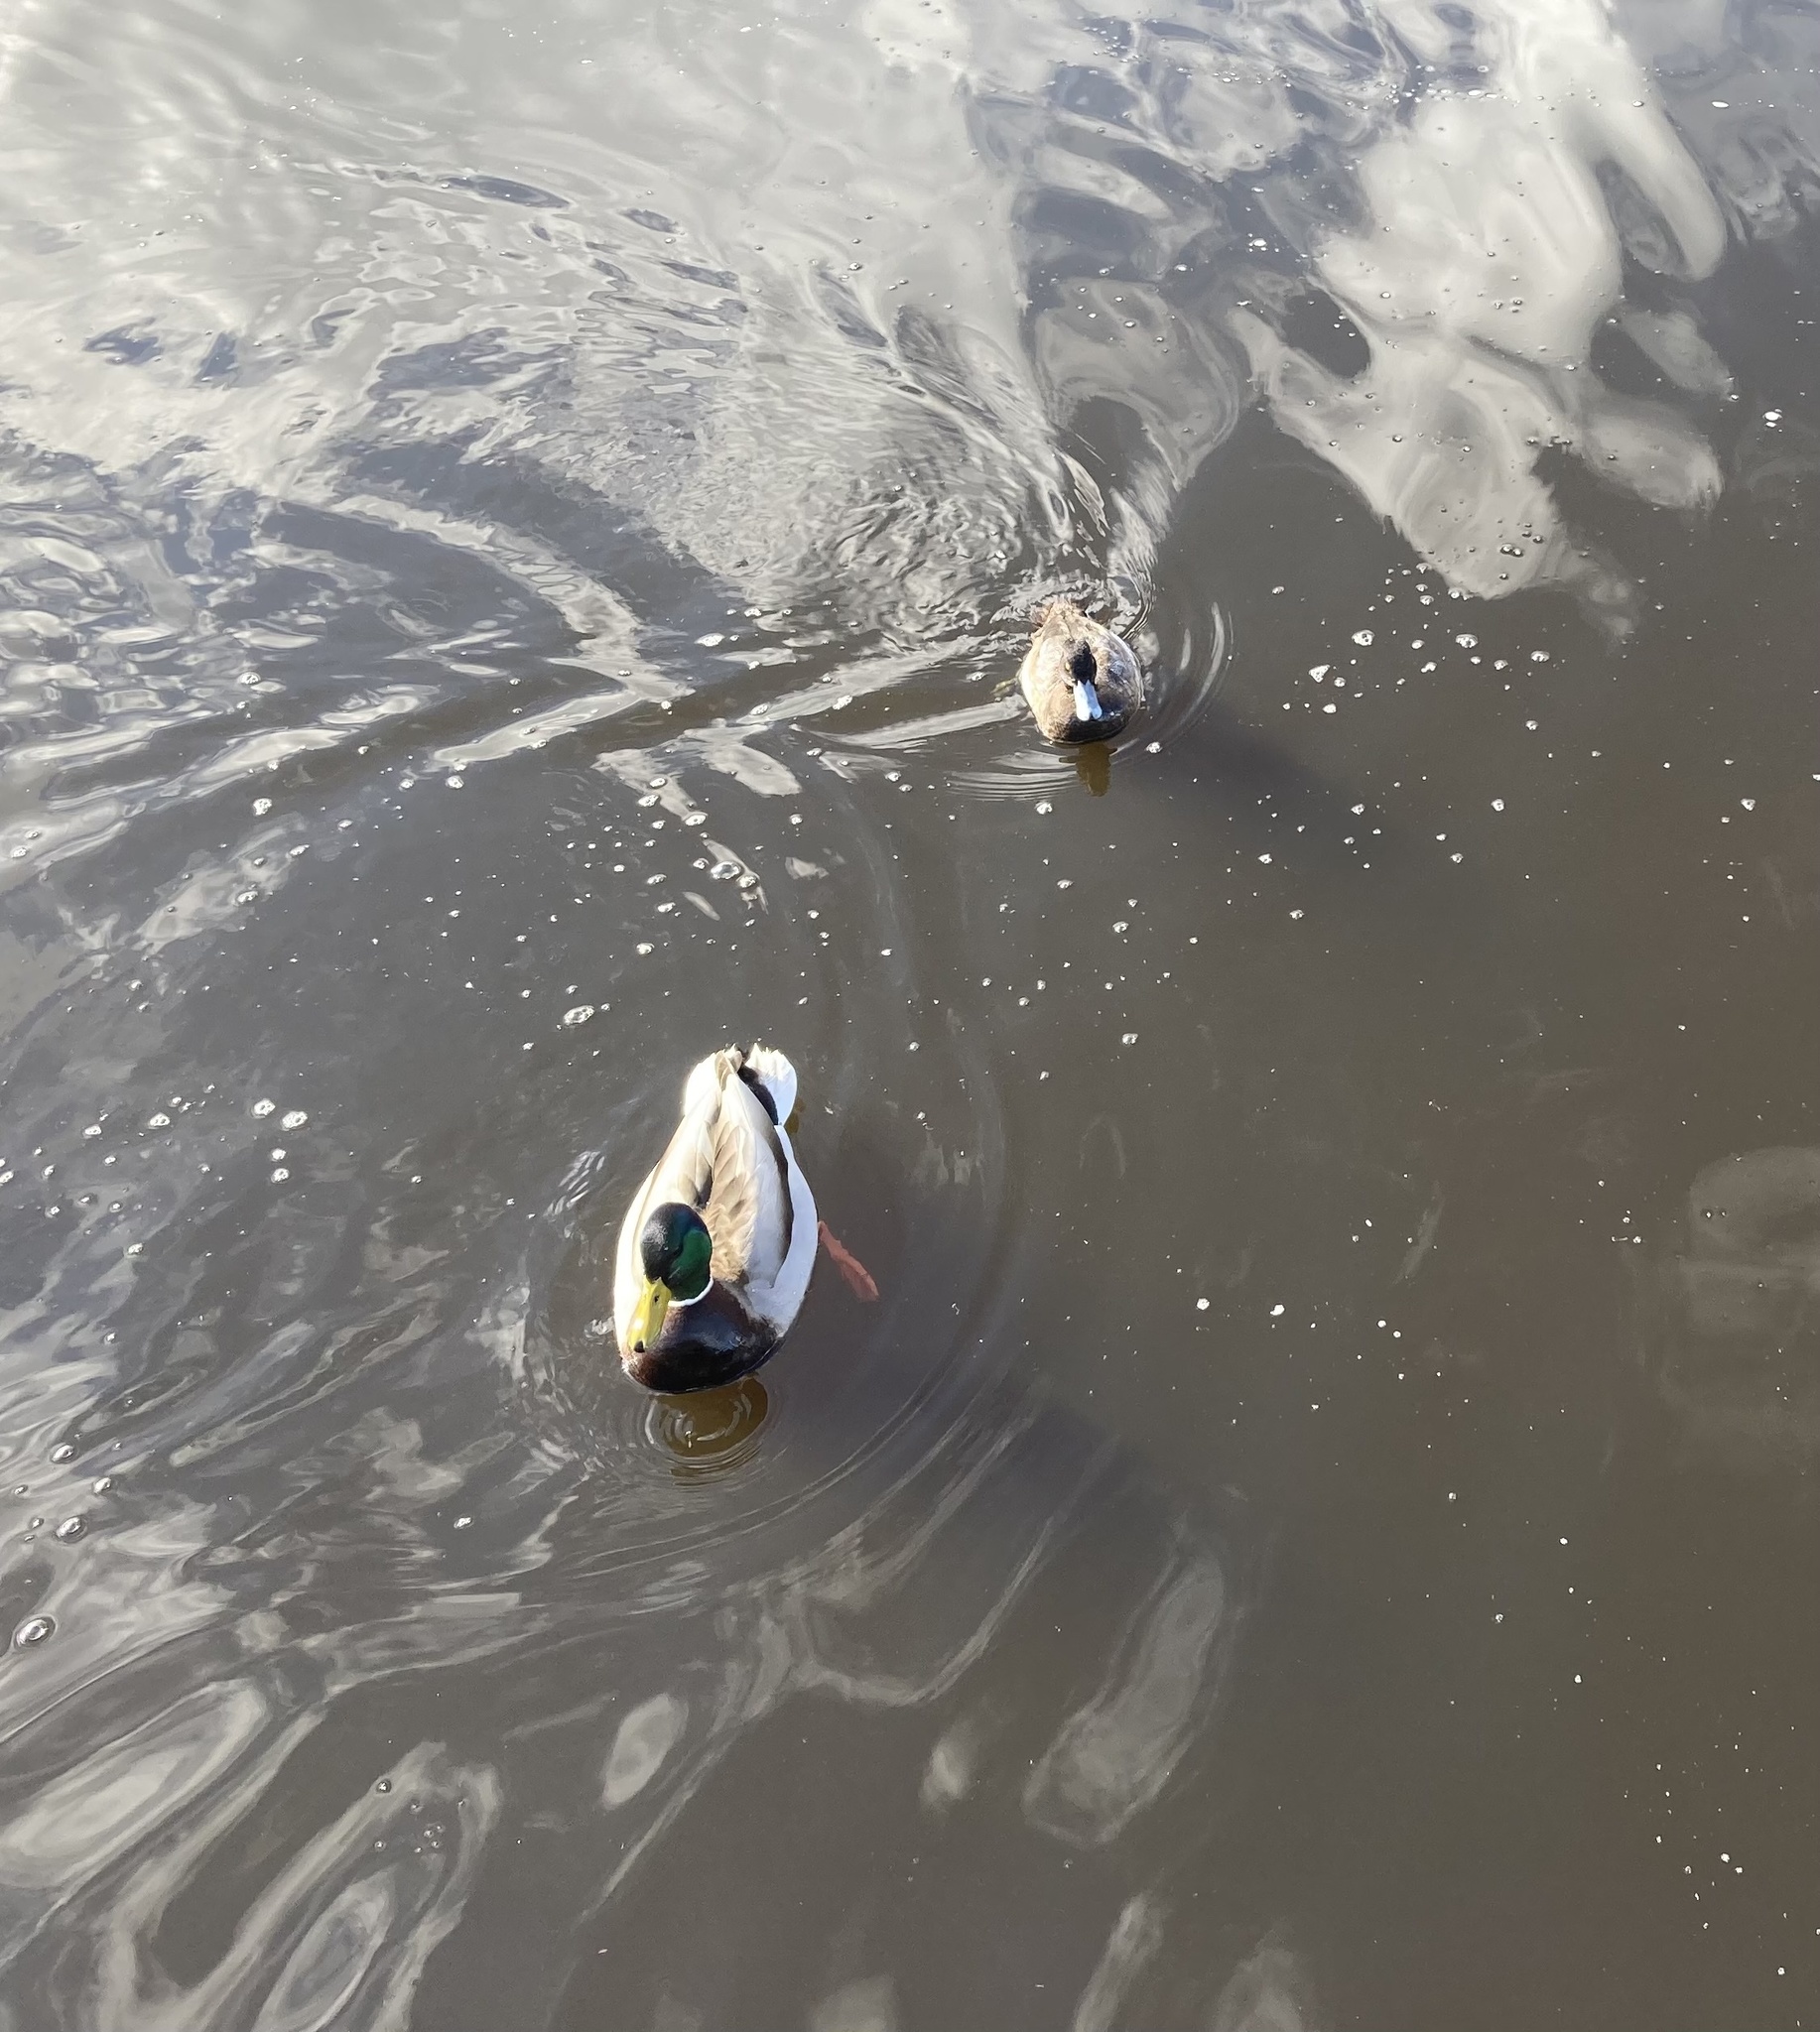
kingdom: Animalia
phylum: Chordata
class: Aves
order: Anseriformes
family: Anatidae
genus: Aythya
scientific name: Aythya affinis
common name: Lesser scaup
